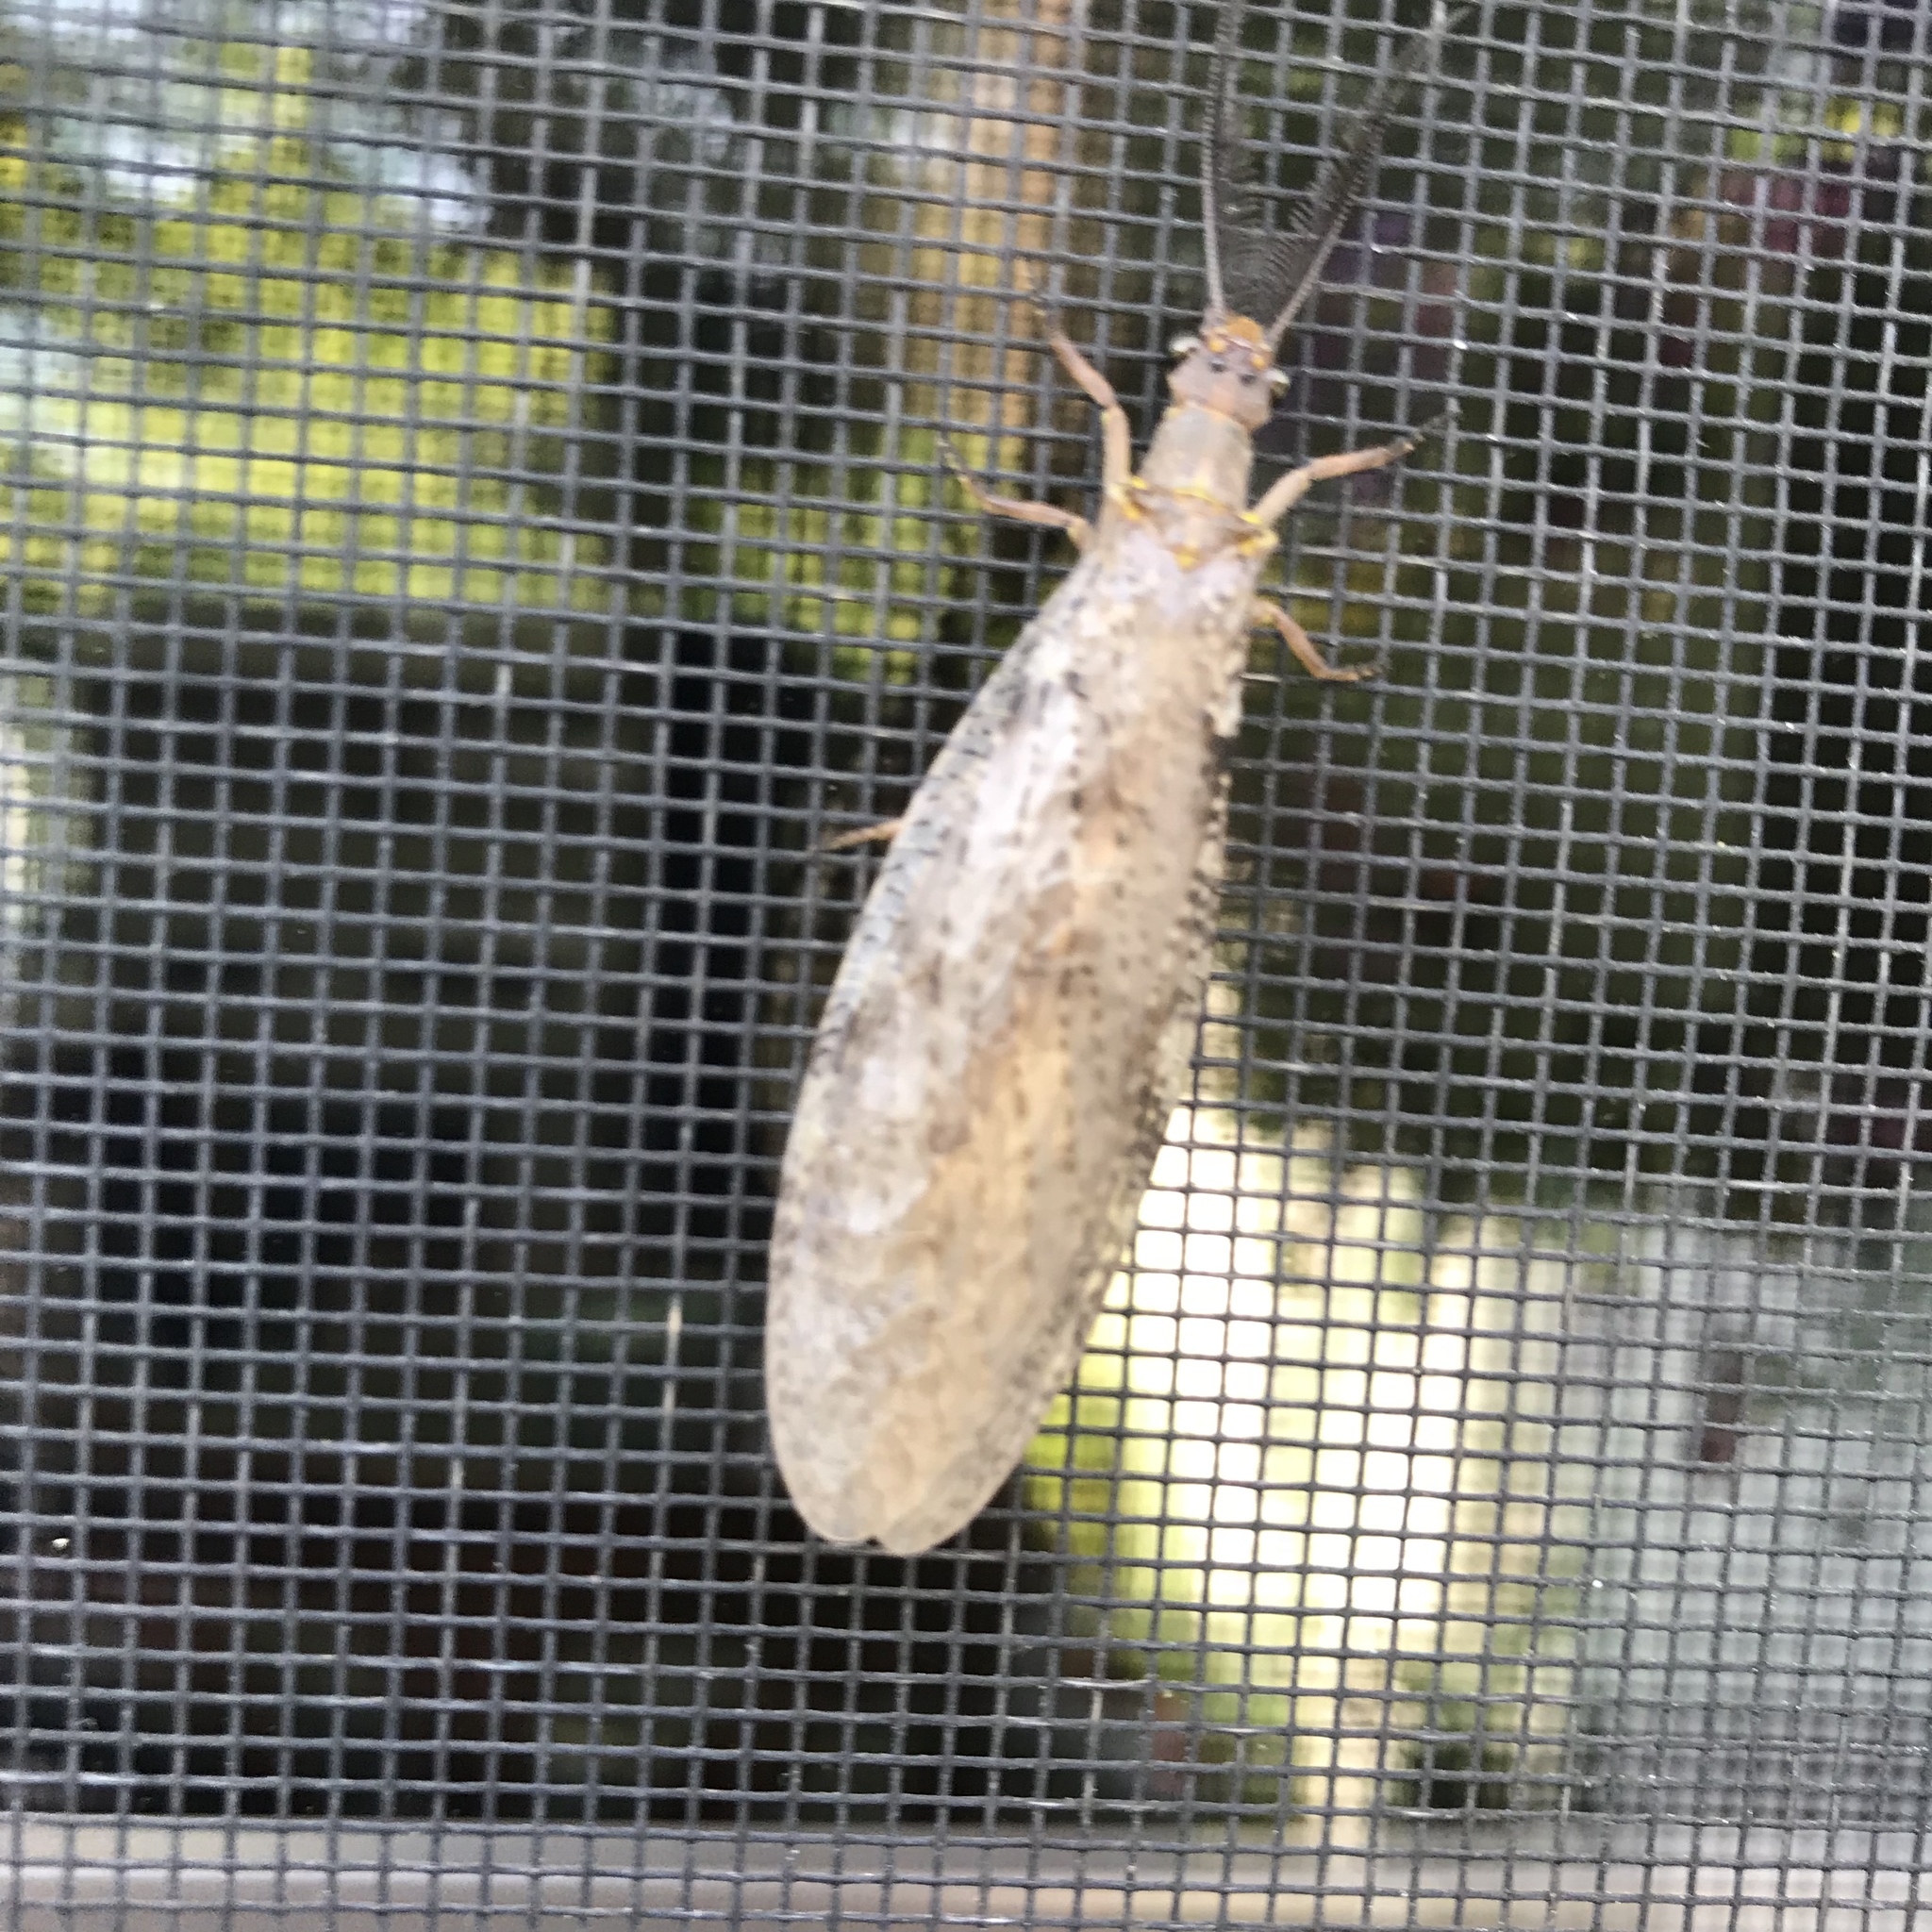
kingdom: Animalia
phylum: Arthropoda
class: Insecta
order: Megaloptera
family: Corydalidae
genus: Chauliodes
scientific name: Chauliodes pectinicornis
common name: Summer fishfly
